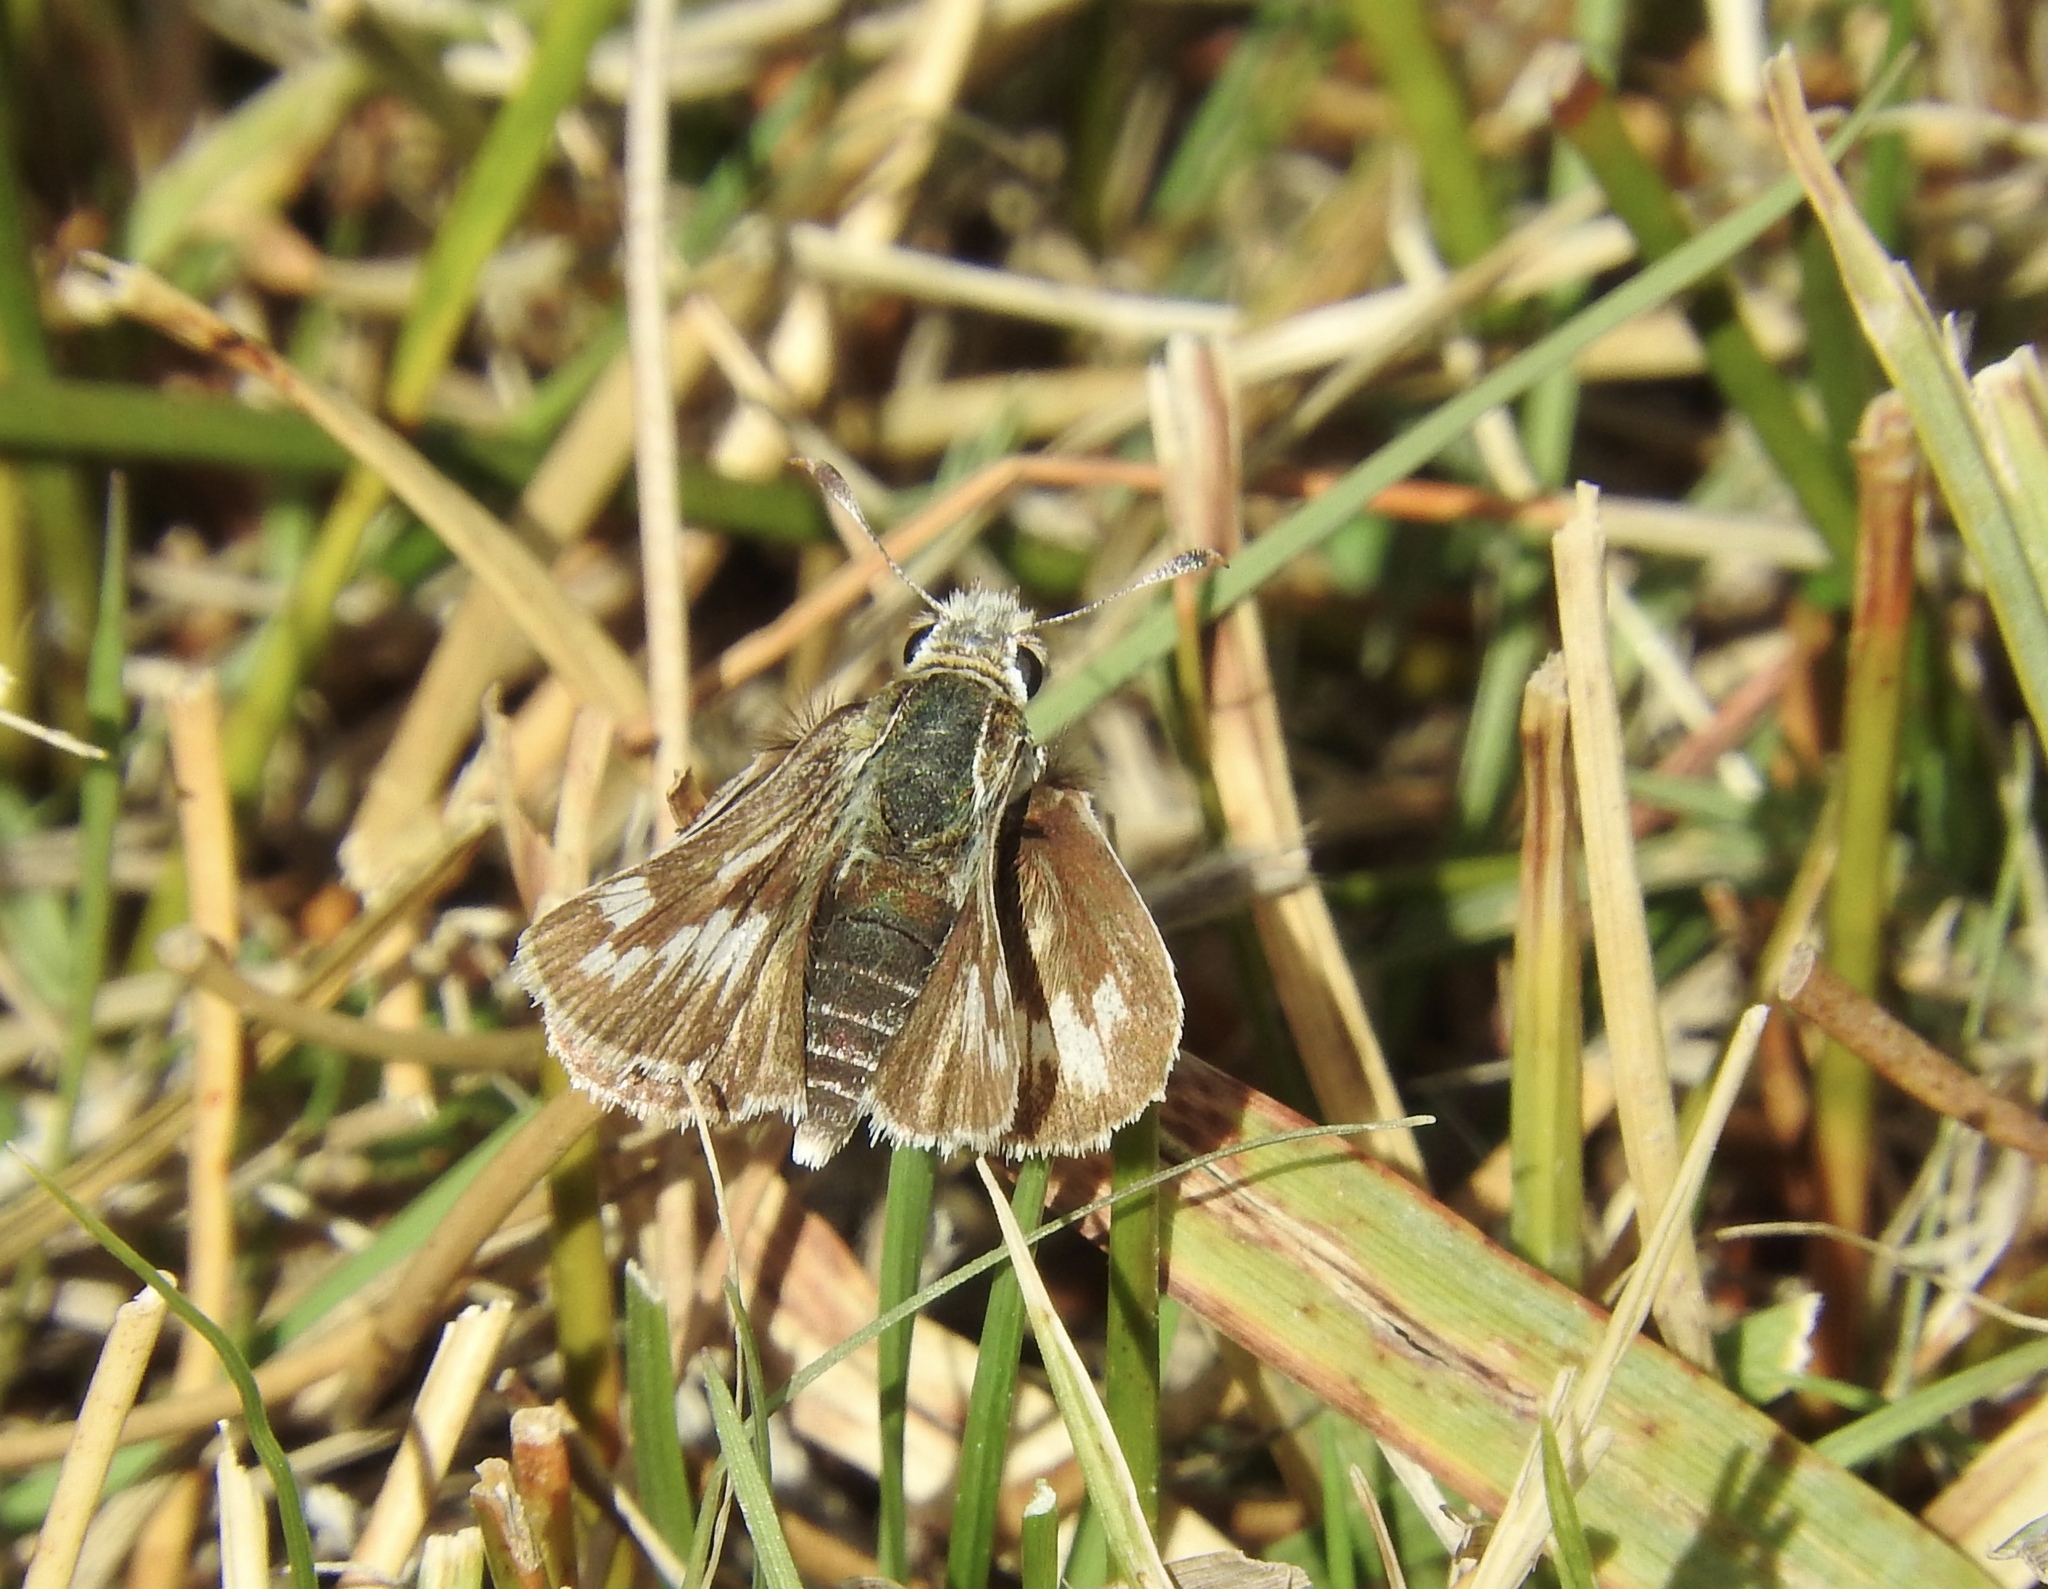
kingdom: Animalia
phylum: Arthropoda
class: Insecta
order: Lepidoptera
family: Hesperiidae
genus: Polites
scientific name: Polites sabuleti
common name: Sandhill skipper
